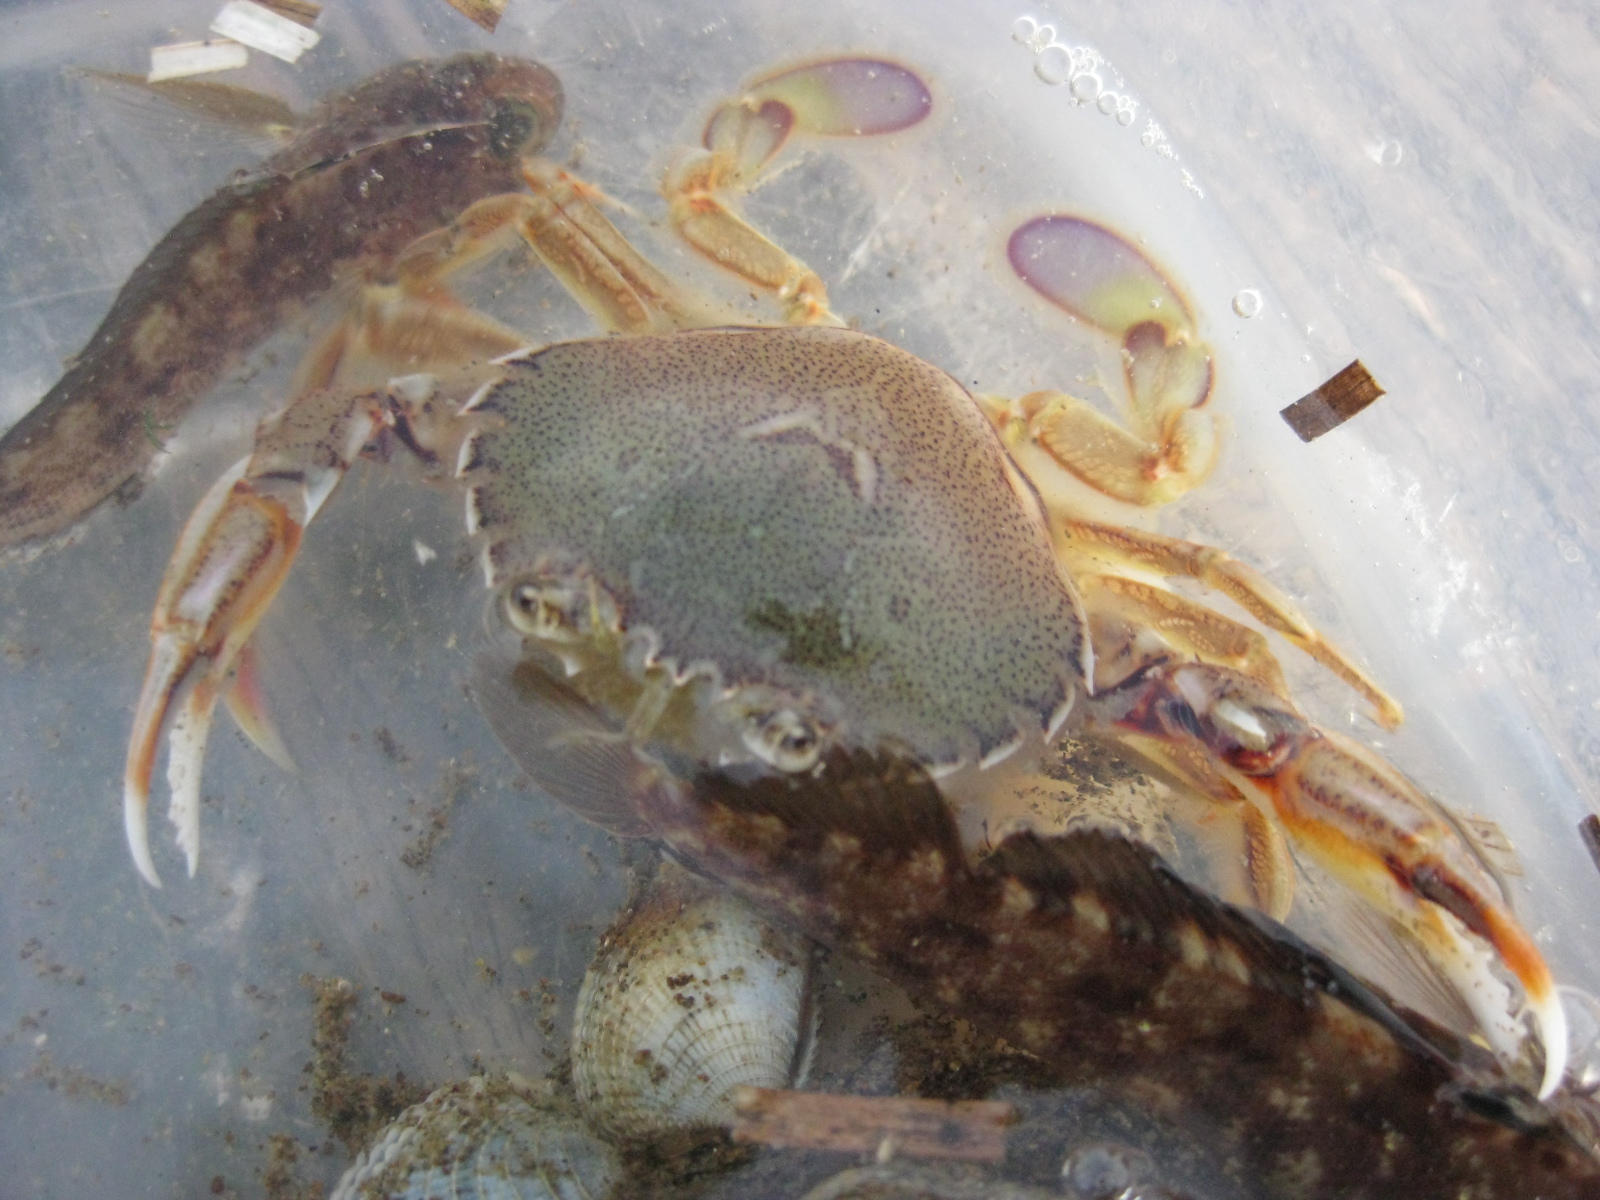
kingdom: Animalia
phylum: Arthropoda
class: Malacostraca
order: Decapoda
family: Ovalipidae
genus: Ovalipes
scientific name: Ovalipes catharus
